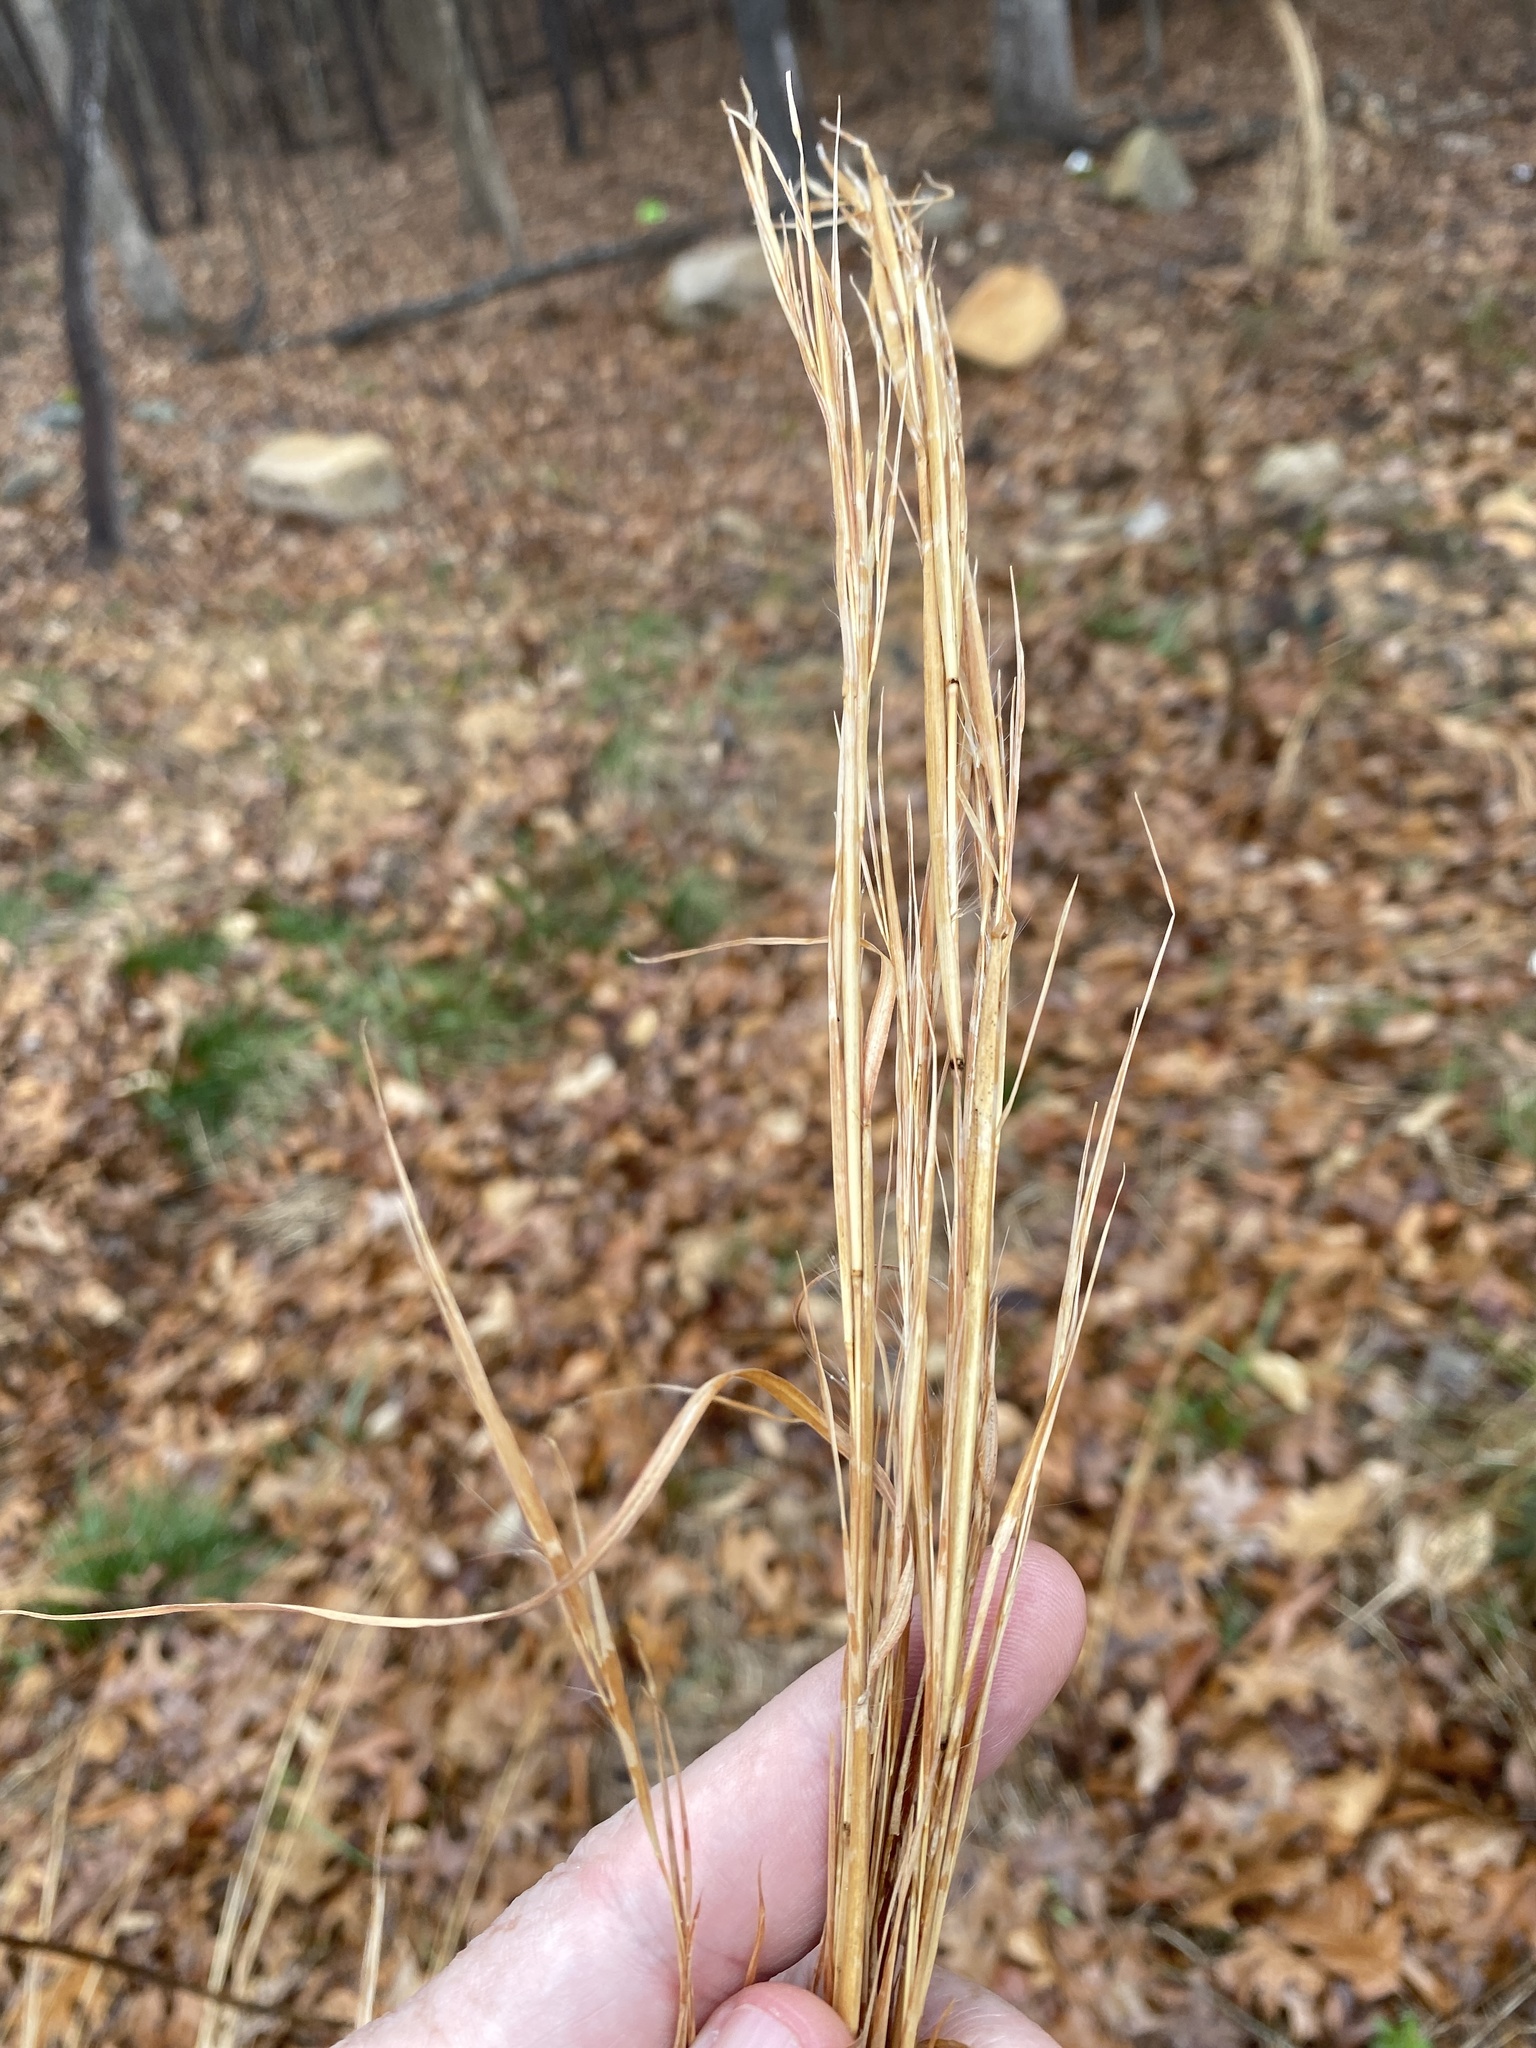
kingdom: Plantae
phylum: Tracheophyta
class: Liliopsida
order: Poales
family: Poaceae
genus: Andropogon
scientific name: Andropogon virginicus
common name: Broomsedge bluestem
